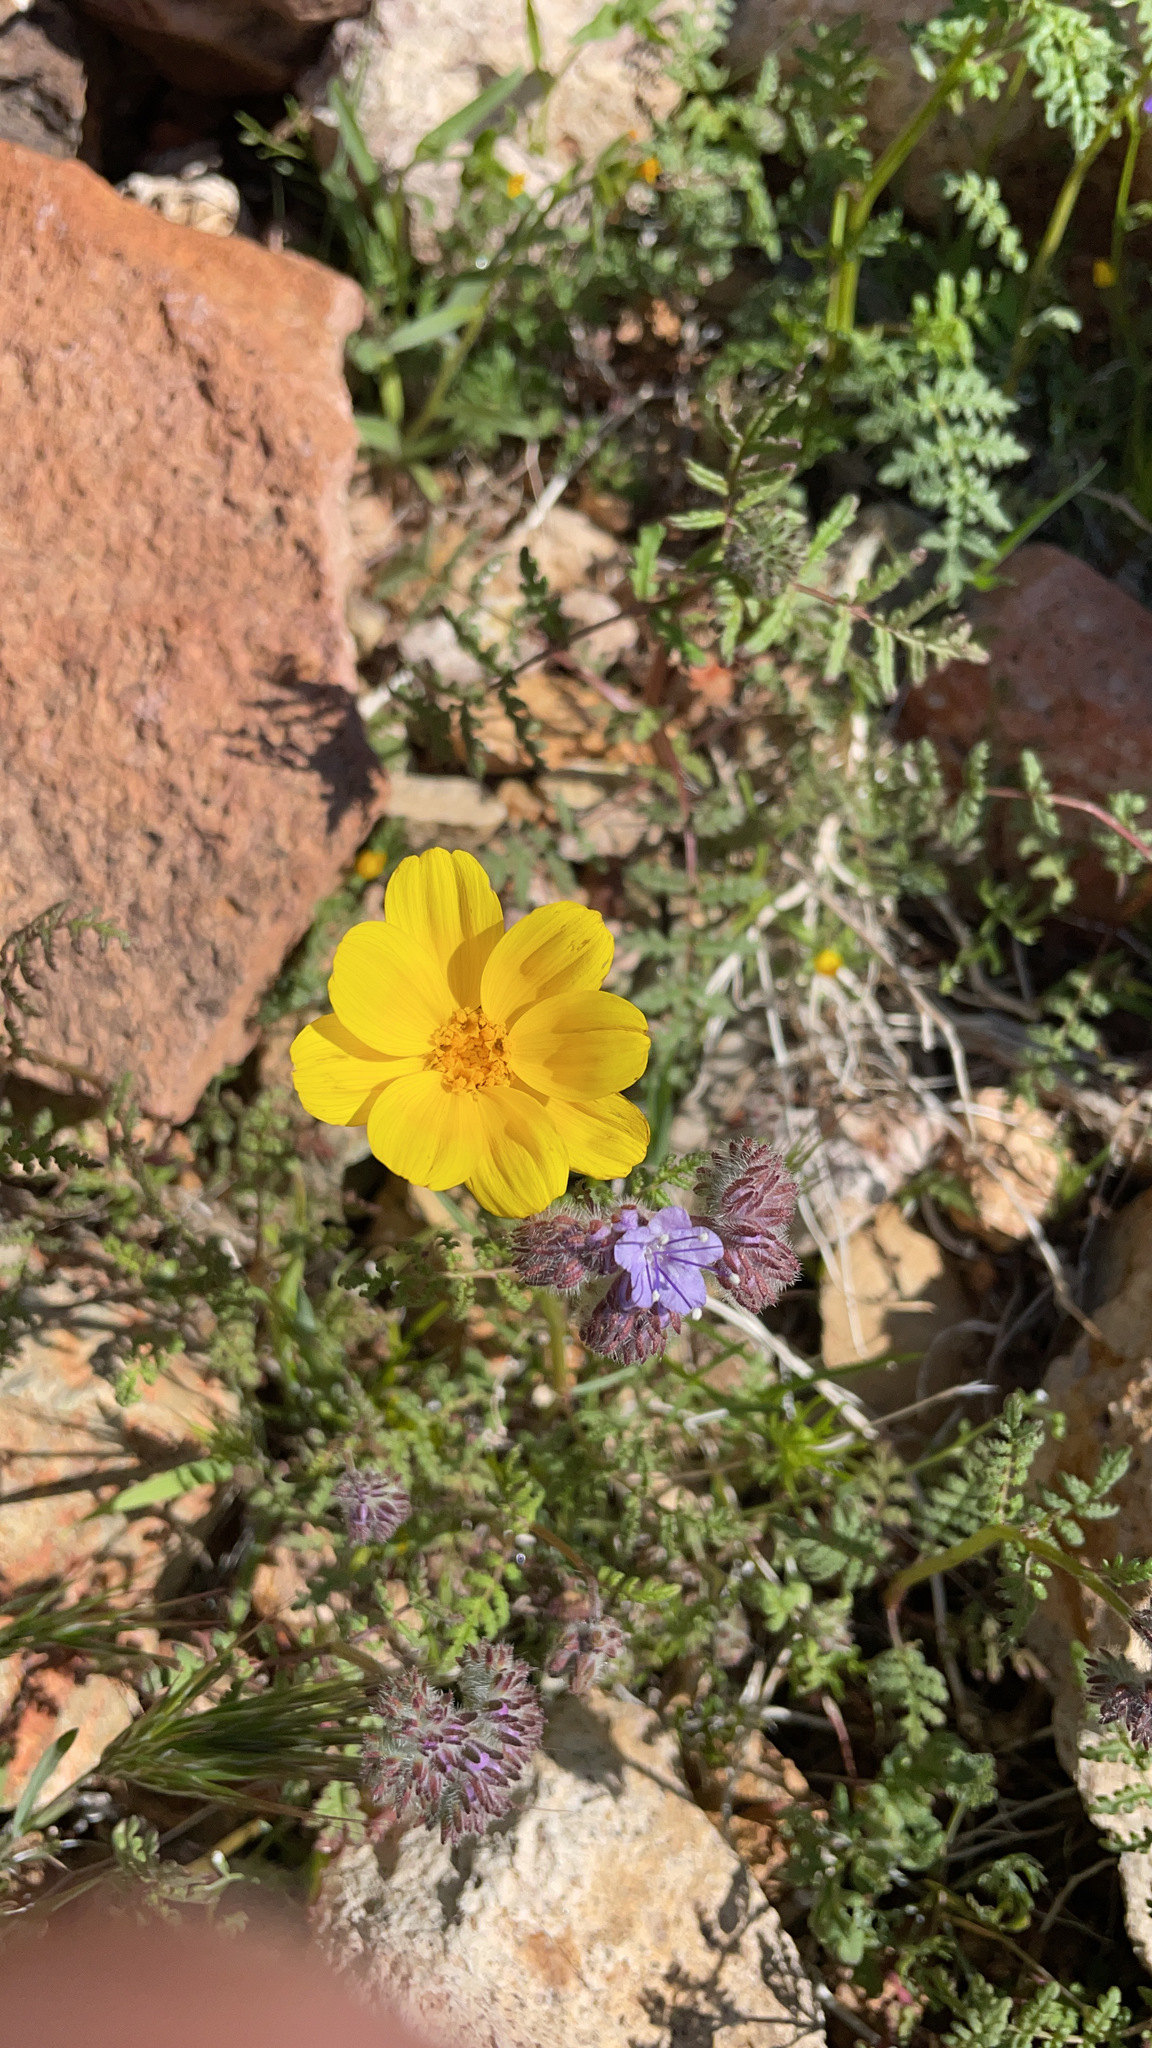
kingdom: Plantae
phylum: Tracheophyta
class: Magnoliopsida
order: Asterales
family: Asteraceae
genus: Coreopsis
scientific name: Coreopsis bigelovii
